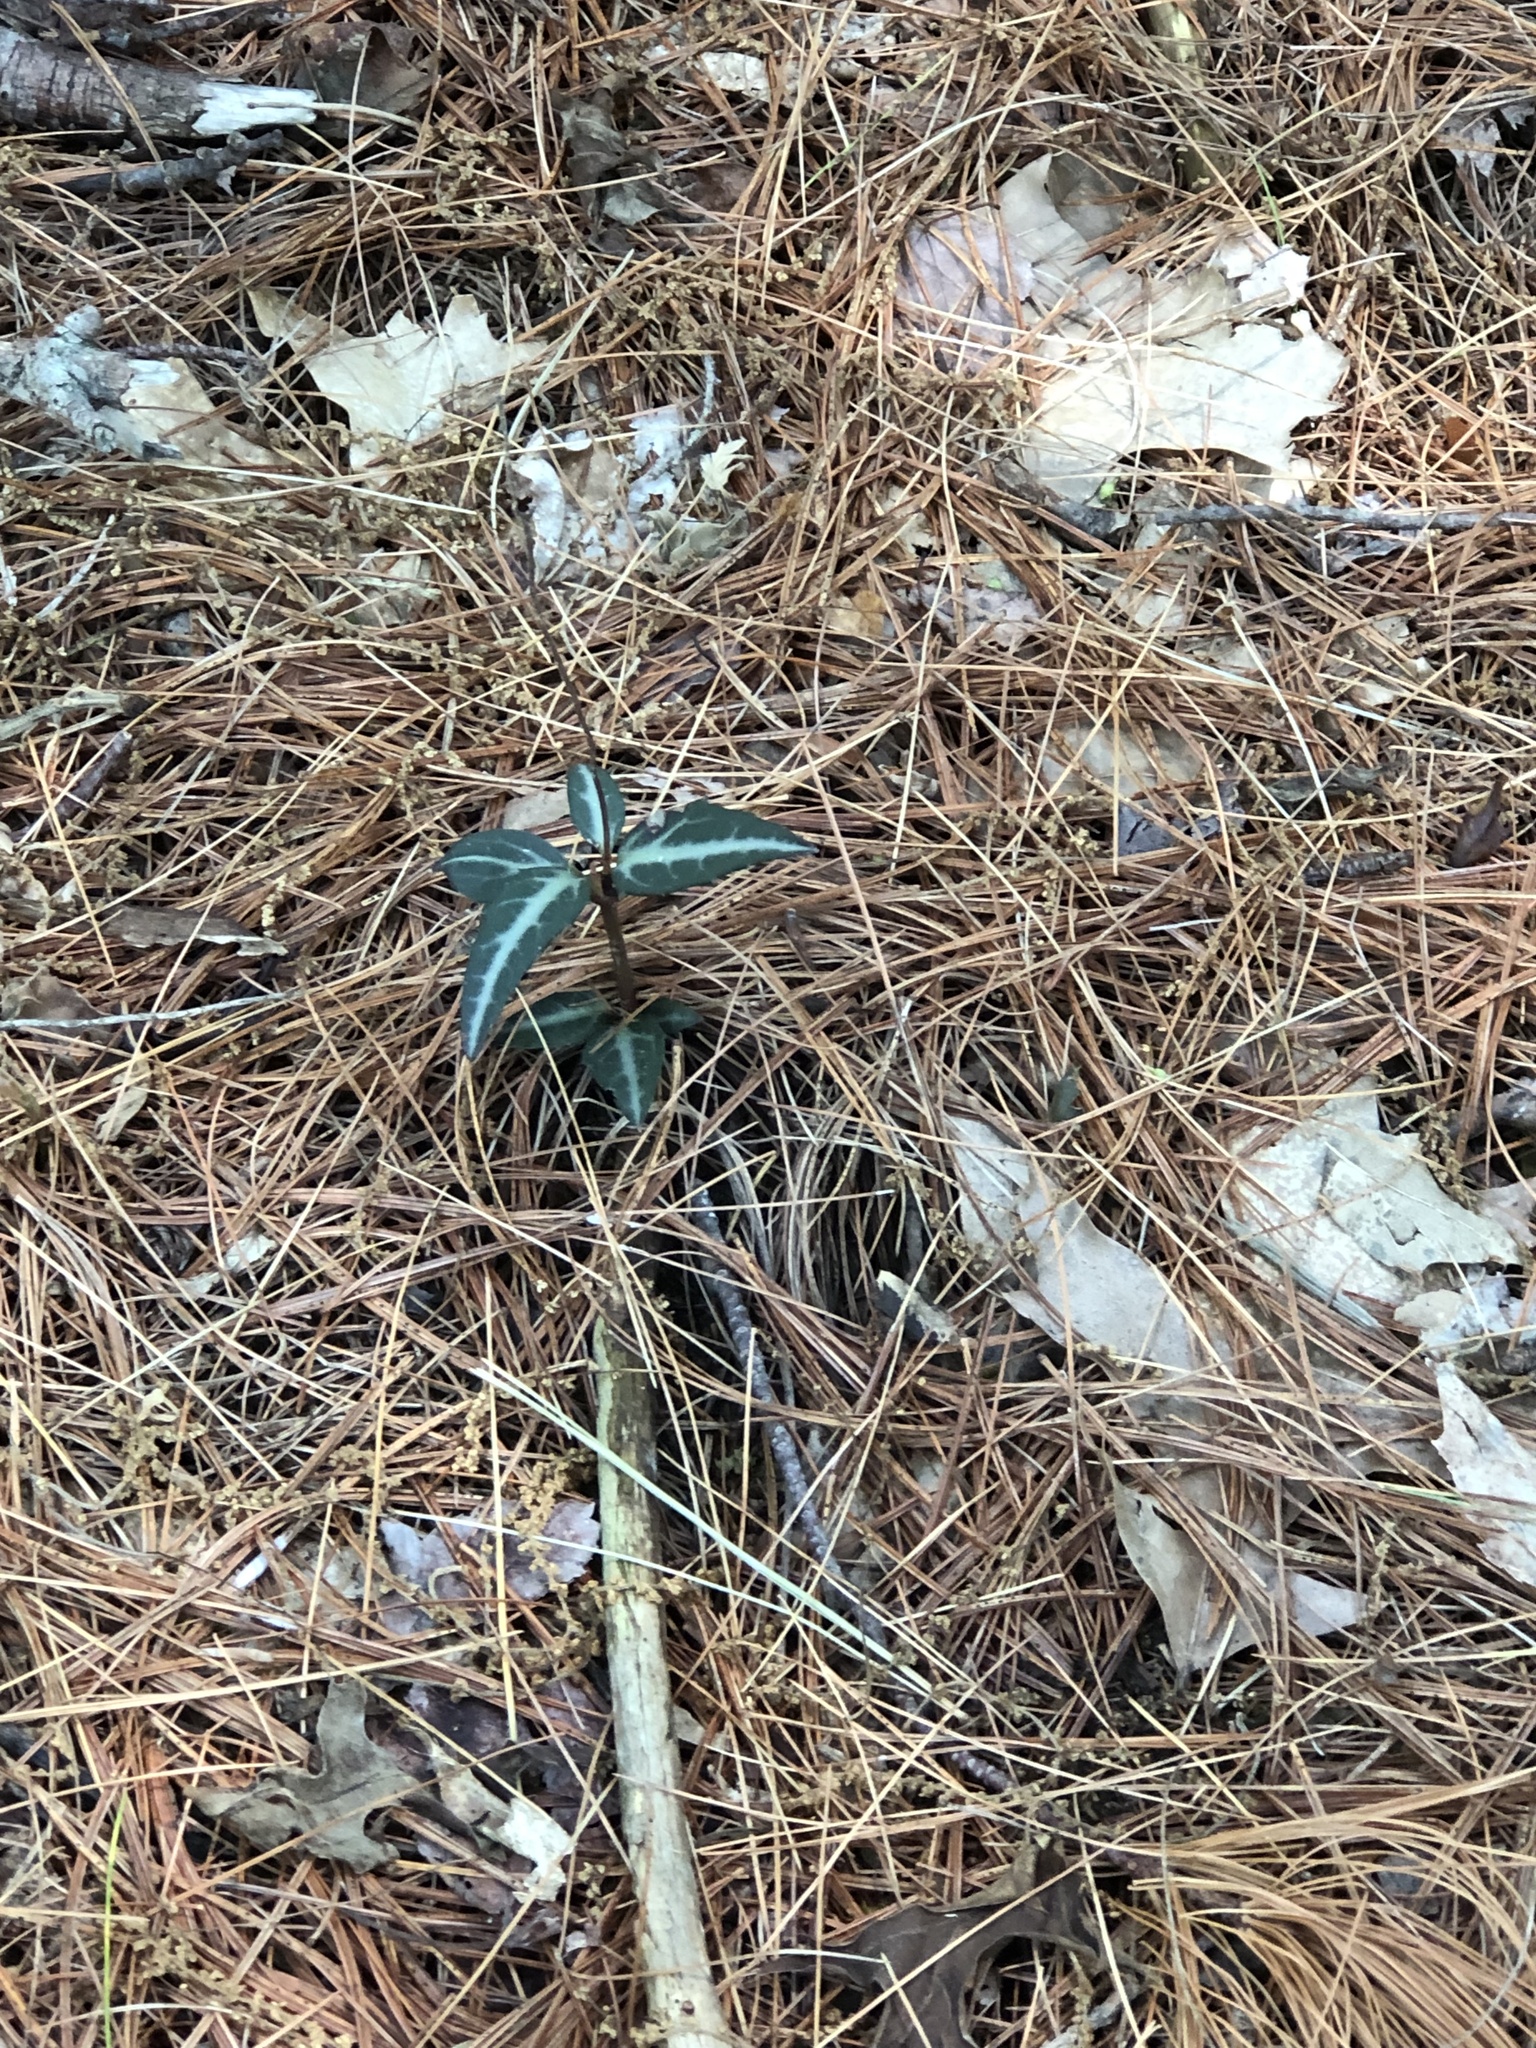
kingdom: Plantae
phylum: Tracheophyta
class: Magnoliopsida
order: Ericales
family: Ericaceae
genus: Chimaphila
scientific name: Chimaphila maculata
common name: Spotted pipsissewa
